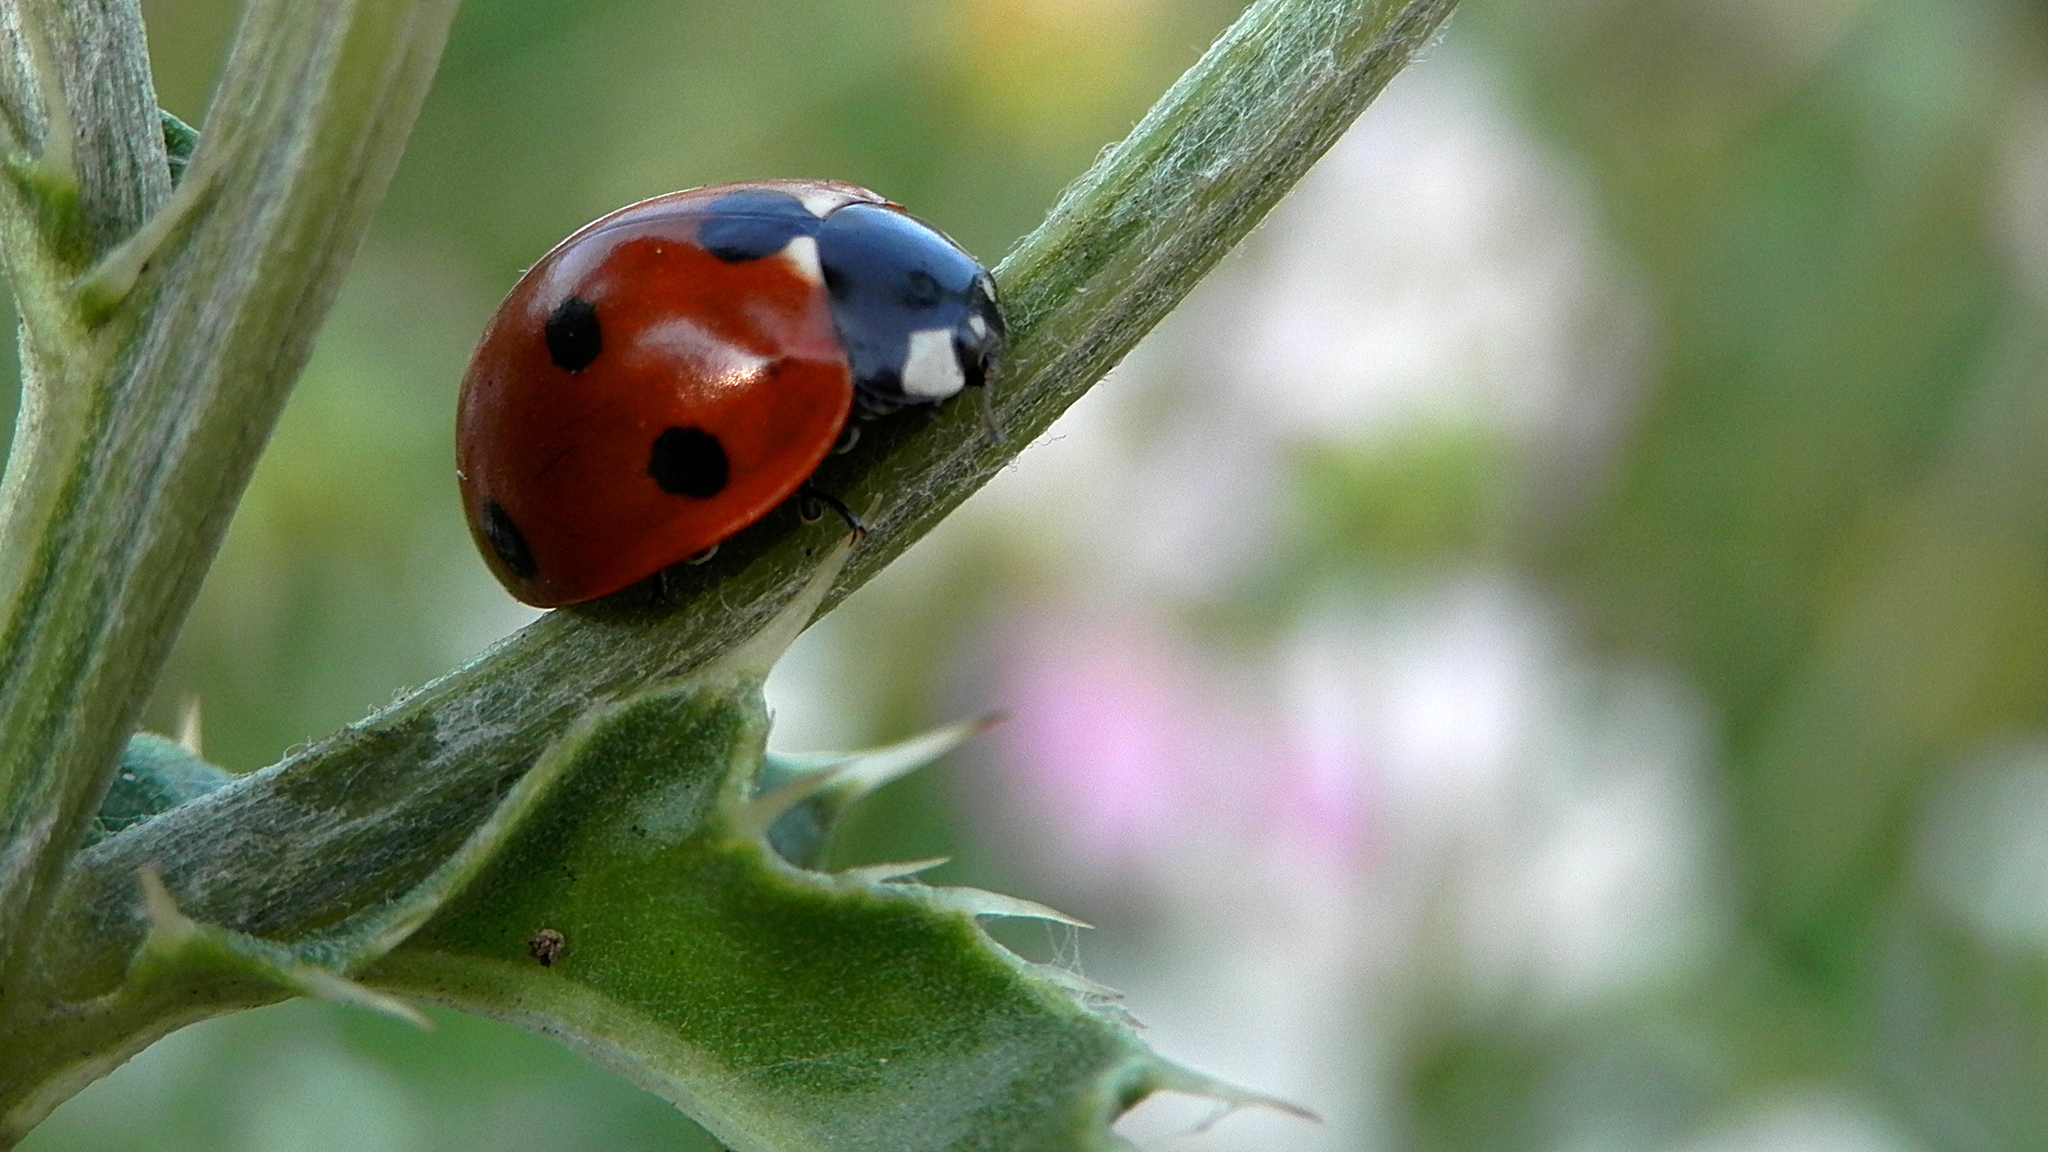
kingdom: Animalia
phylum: Arthropoda
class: Insecta
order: Coleoptera
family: Coccinellidae
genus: Coccinella
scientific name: Coccinella septempunctata
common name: Sevenspotted lady beetle
